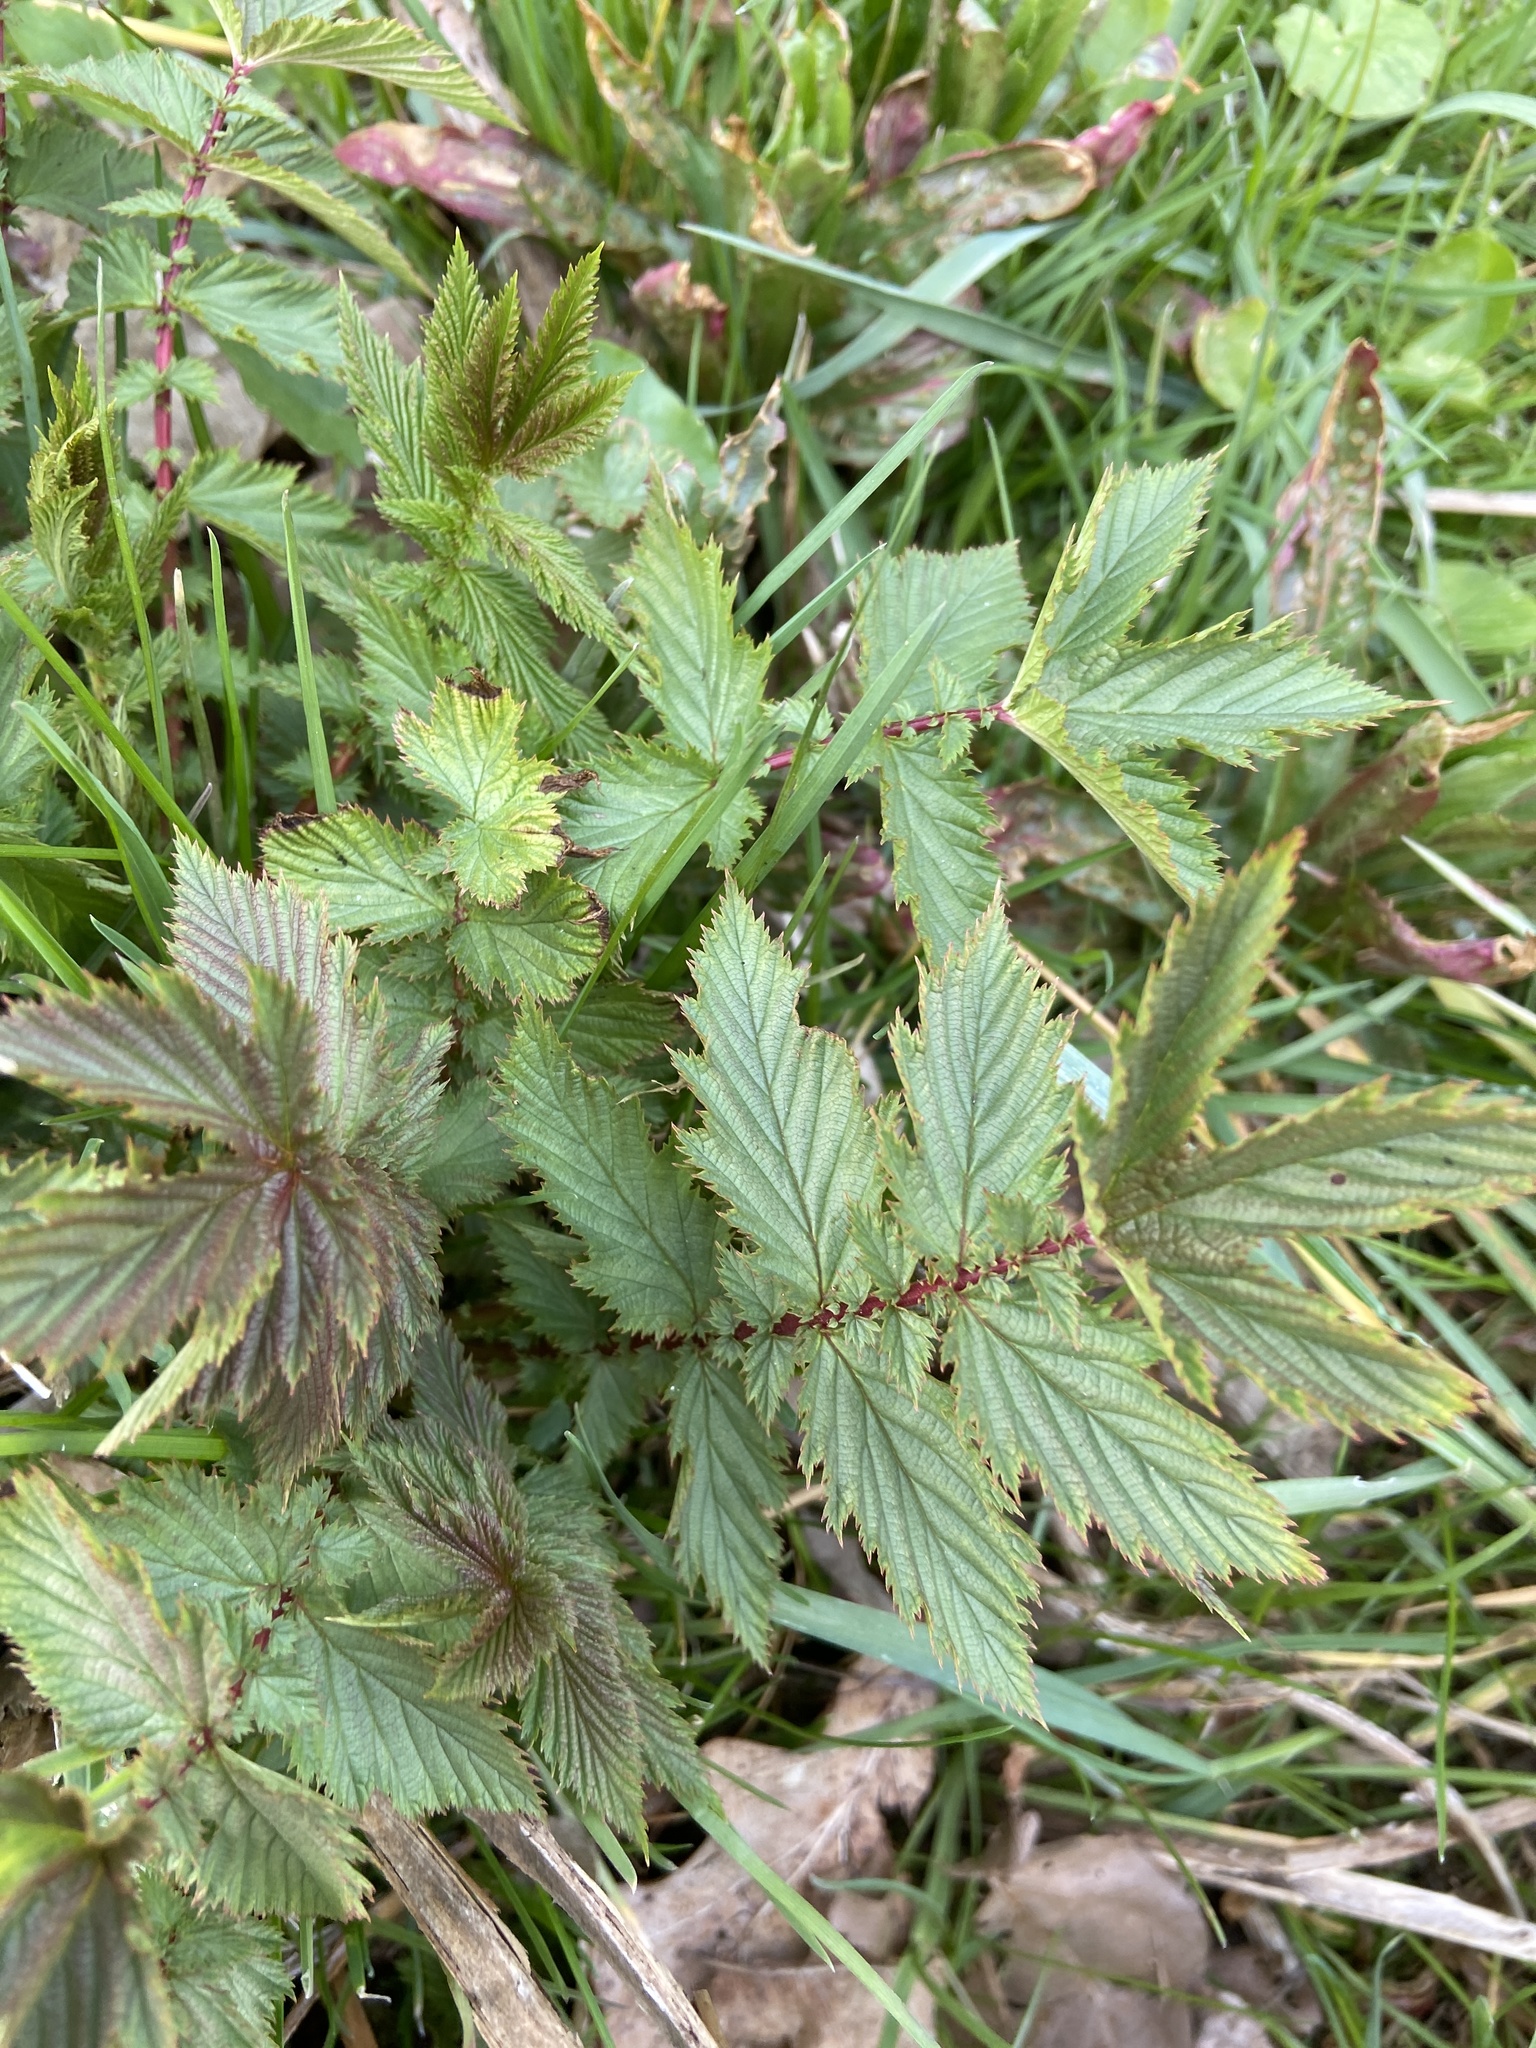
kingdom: Plantae
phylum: Tracheophyta
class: Magnoliopsida
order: Rosales
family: Rosaceae
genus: Filipendula
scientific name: Filipendula ulmaria
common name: Meadowsweet
